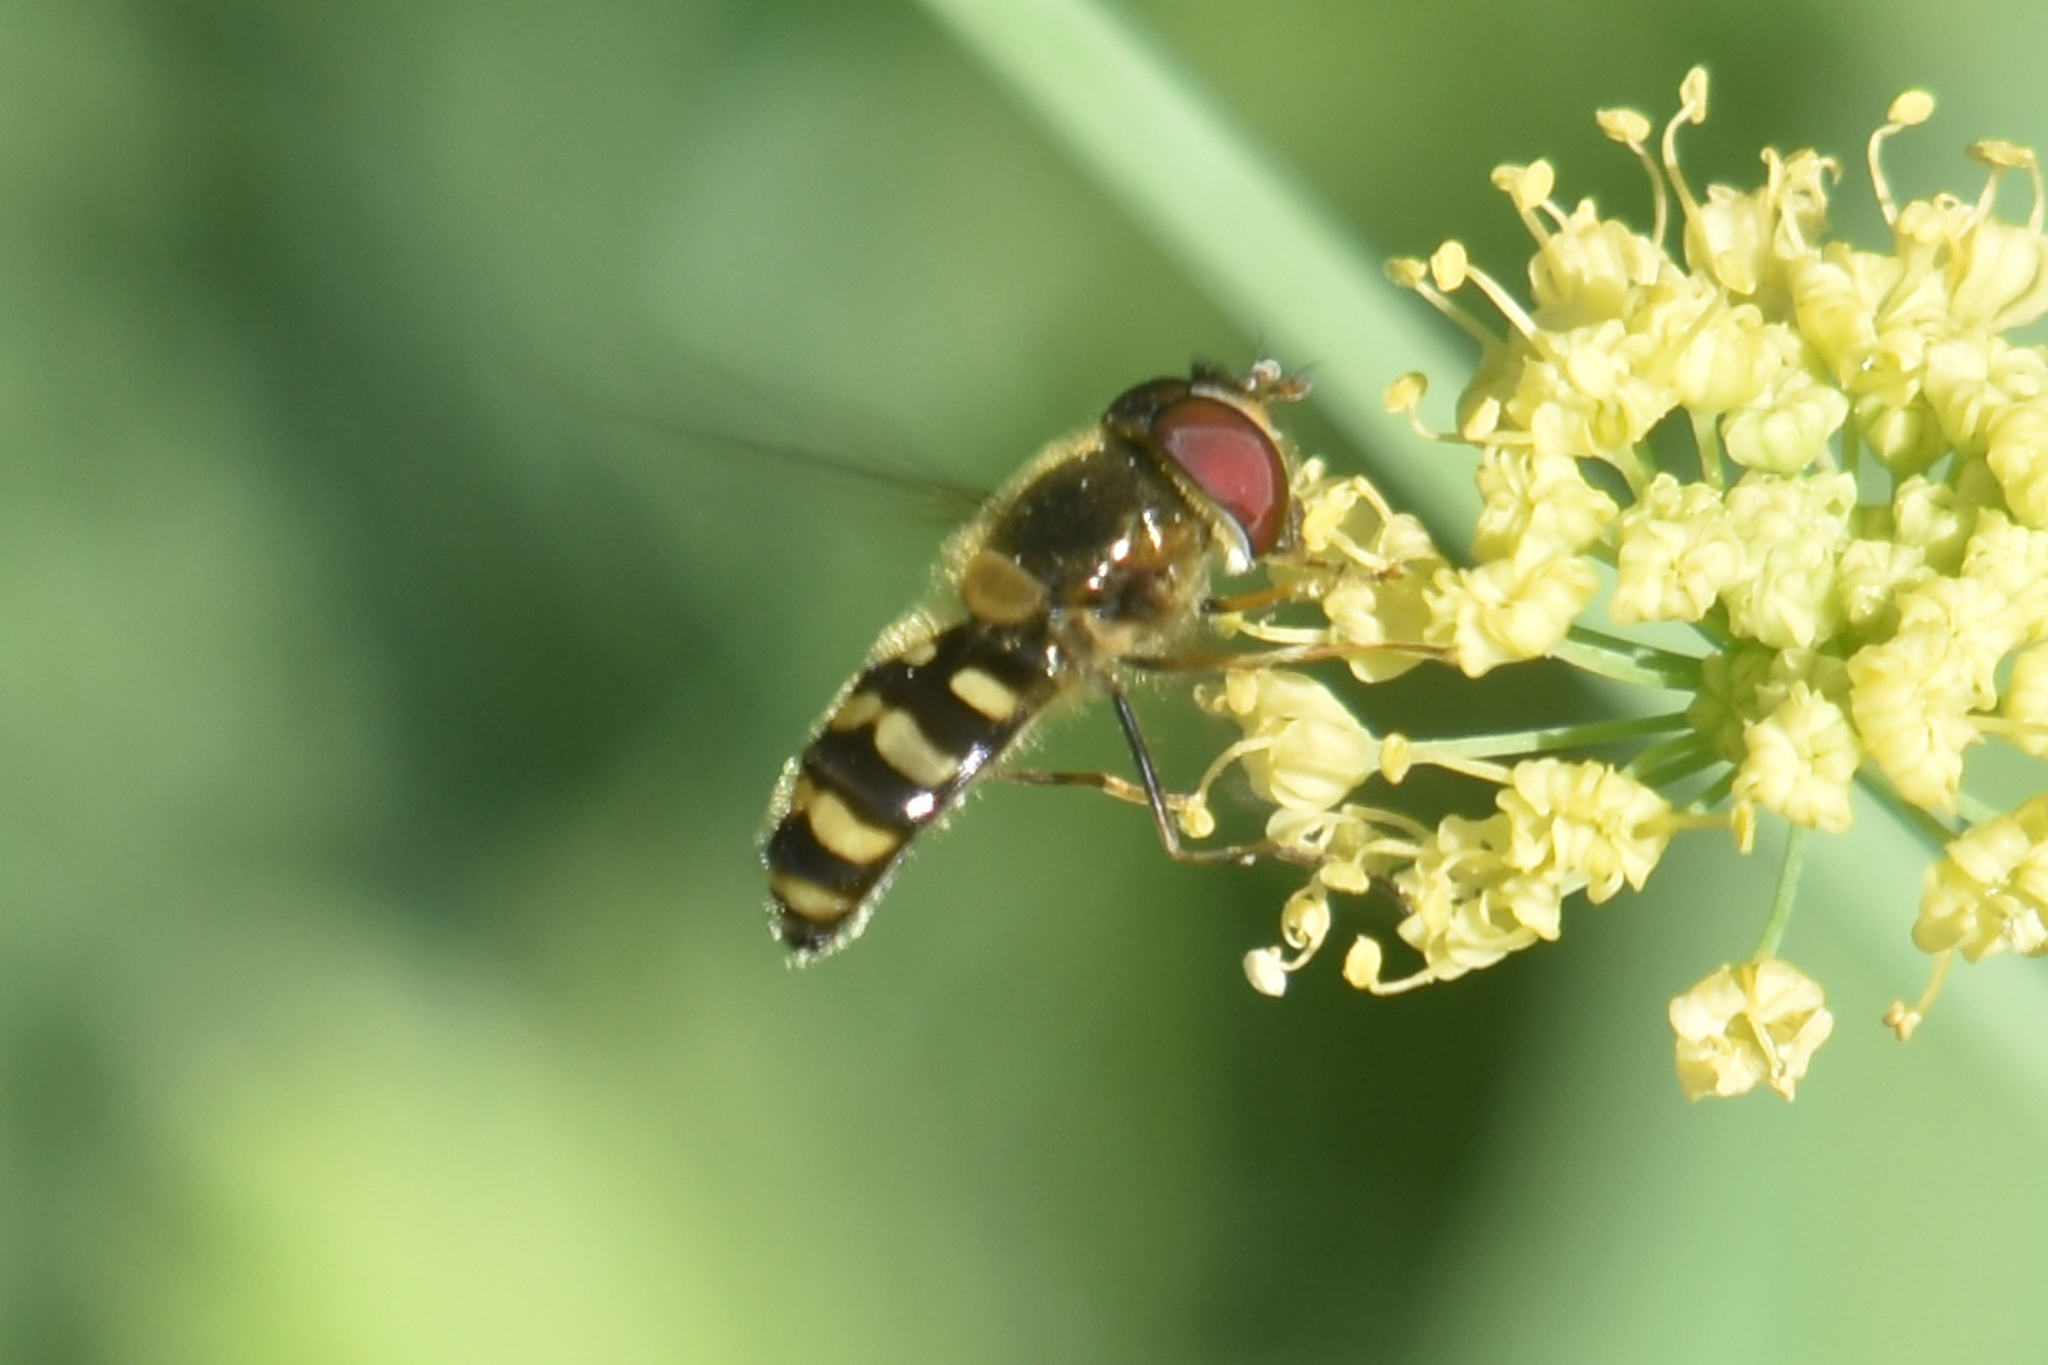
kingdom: Animalia
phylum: Arthropoda
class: Insecta
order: Diptera
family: Syrphidae
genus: Lapposyrphus
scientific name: Lapposyrphus aberrantis
